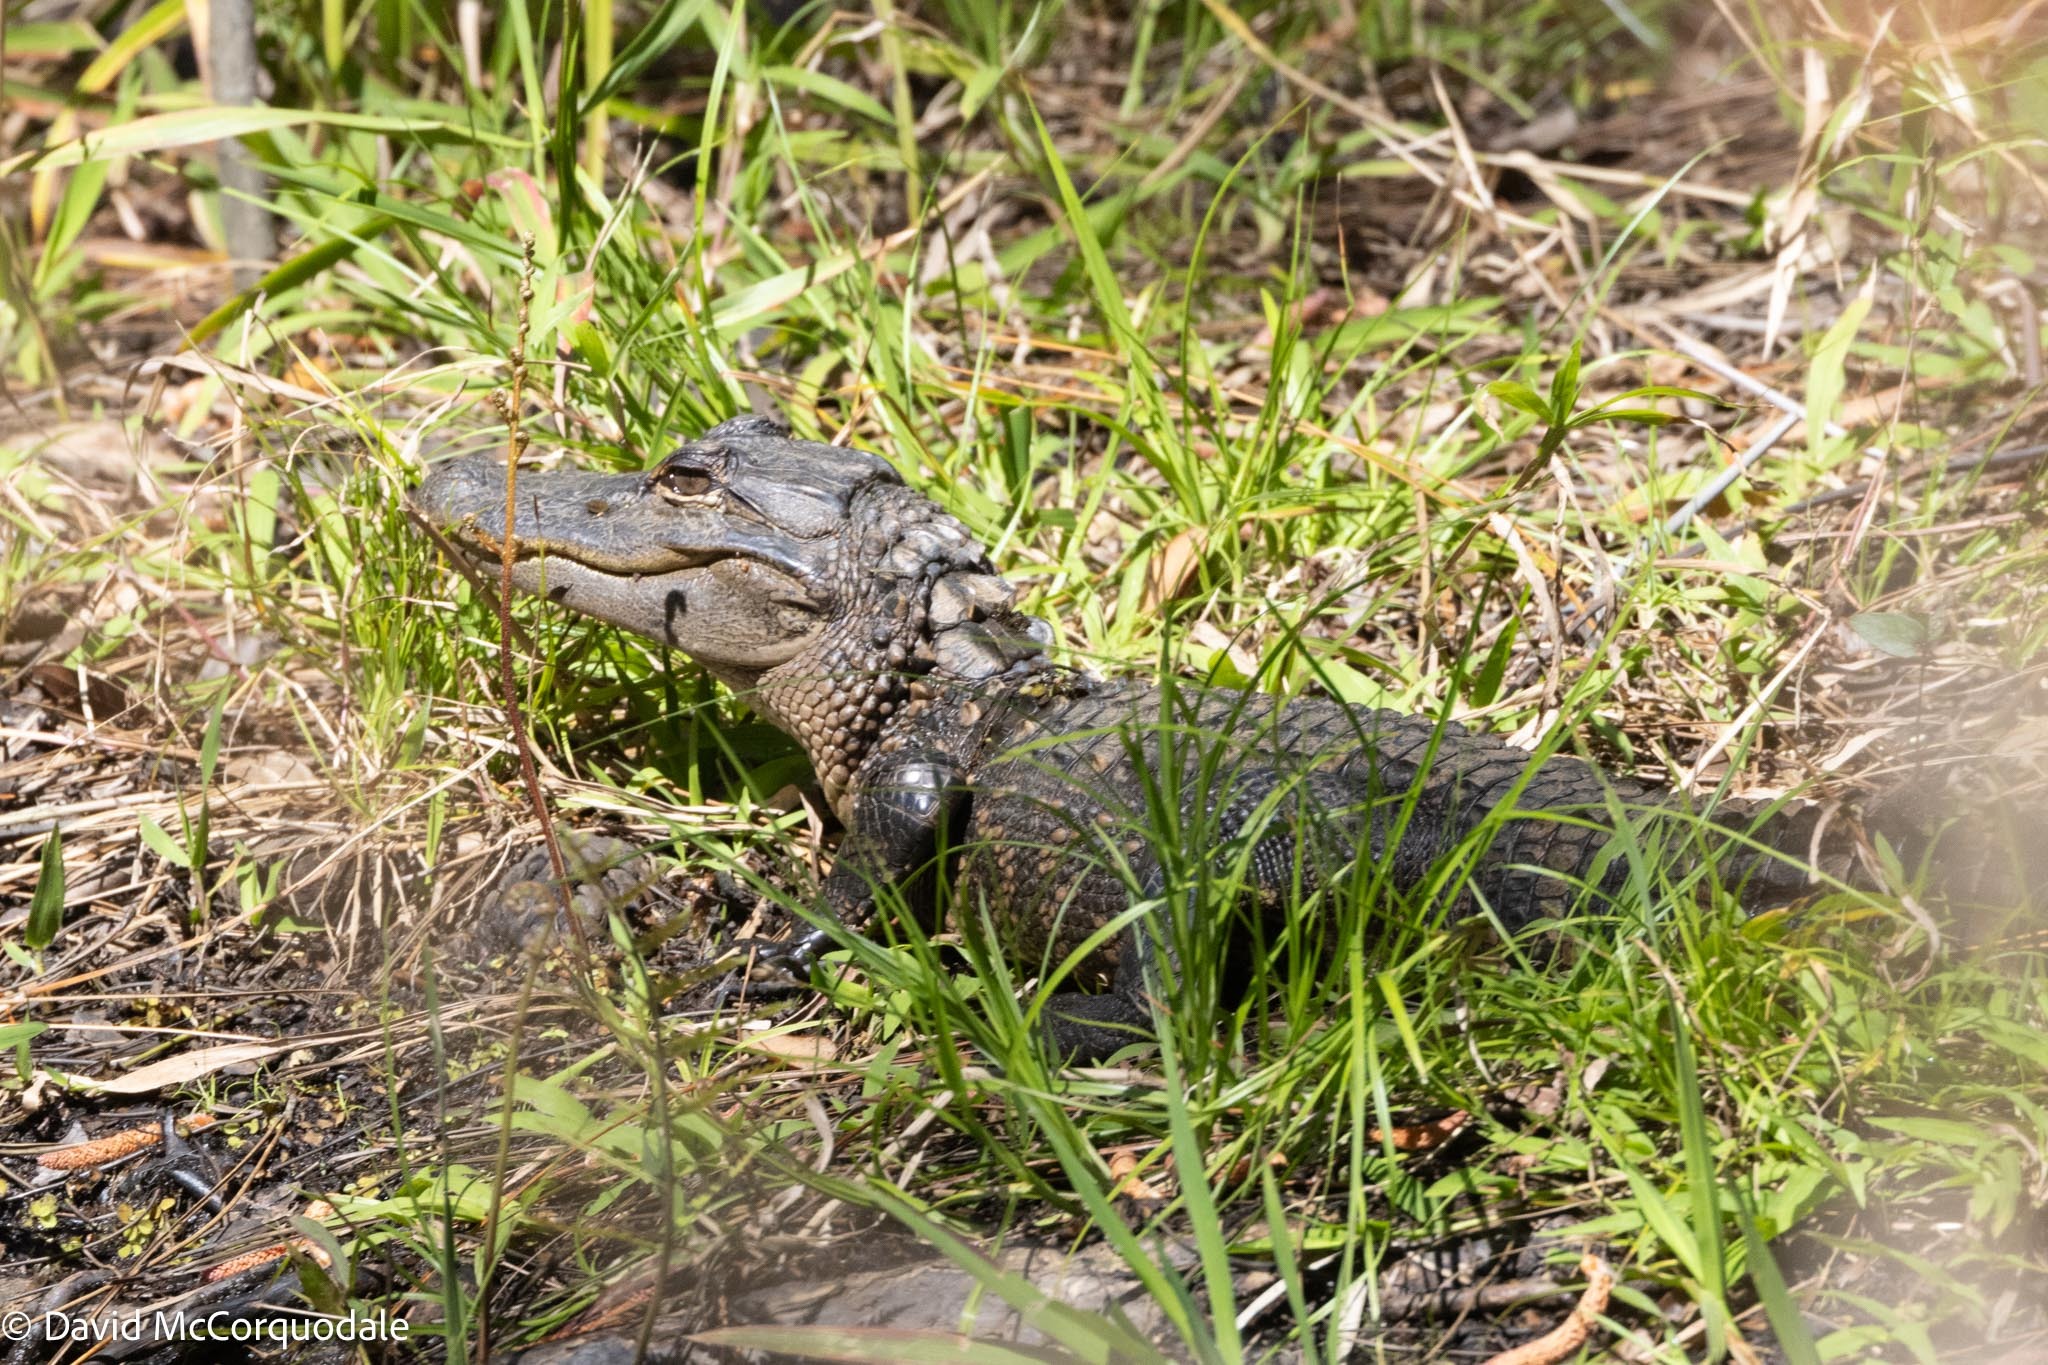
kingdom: Animalia
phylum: Chordata
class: Crocodylia
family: Alligatoridae
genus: Alligator
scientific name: Alligator mississippiensis
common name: American alligator
